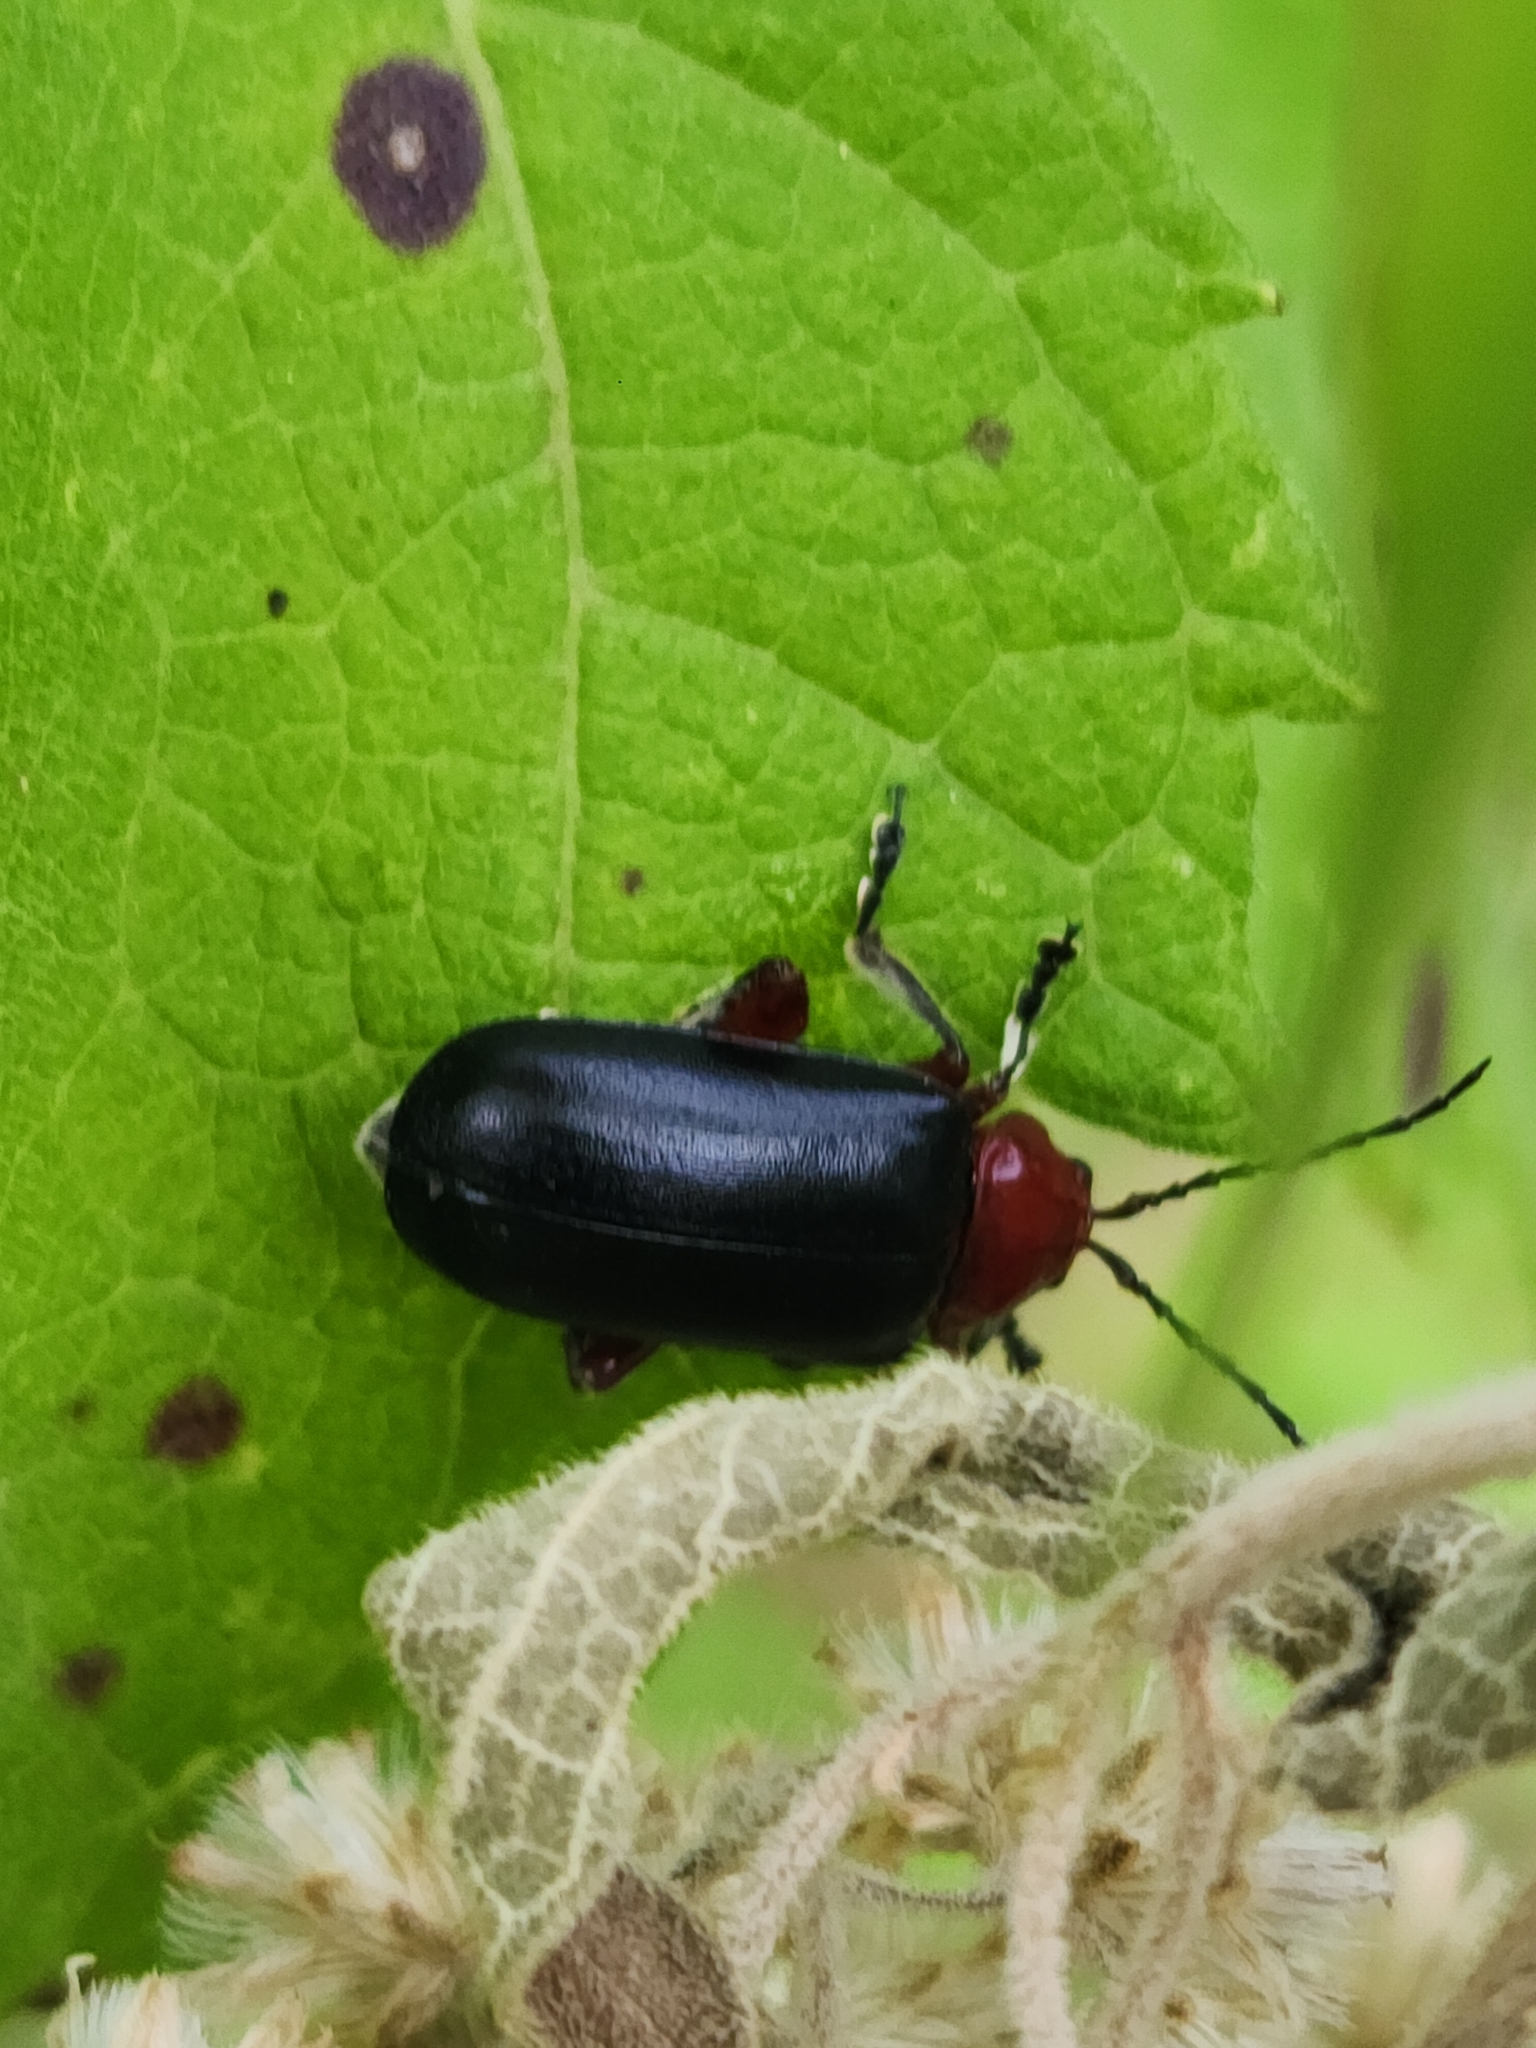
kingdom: Animalia
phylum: Arthropoda
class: Insecta
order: Coleoptera
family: Chrysomelidae
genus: Cacoscelis
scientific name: Cacoscelis
